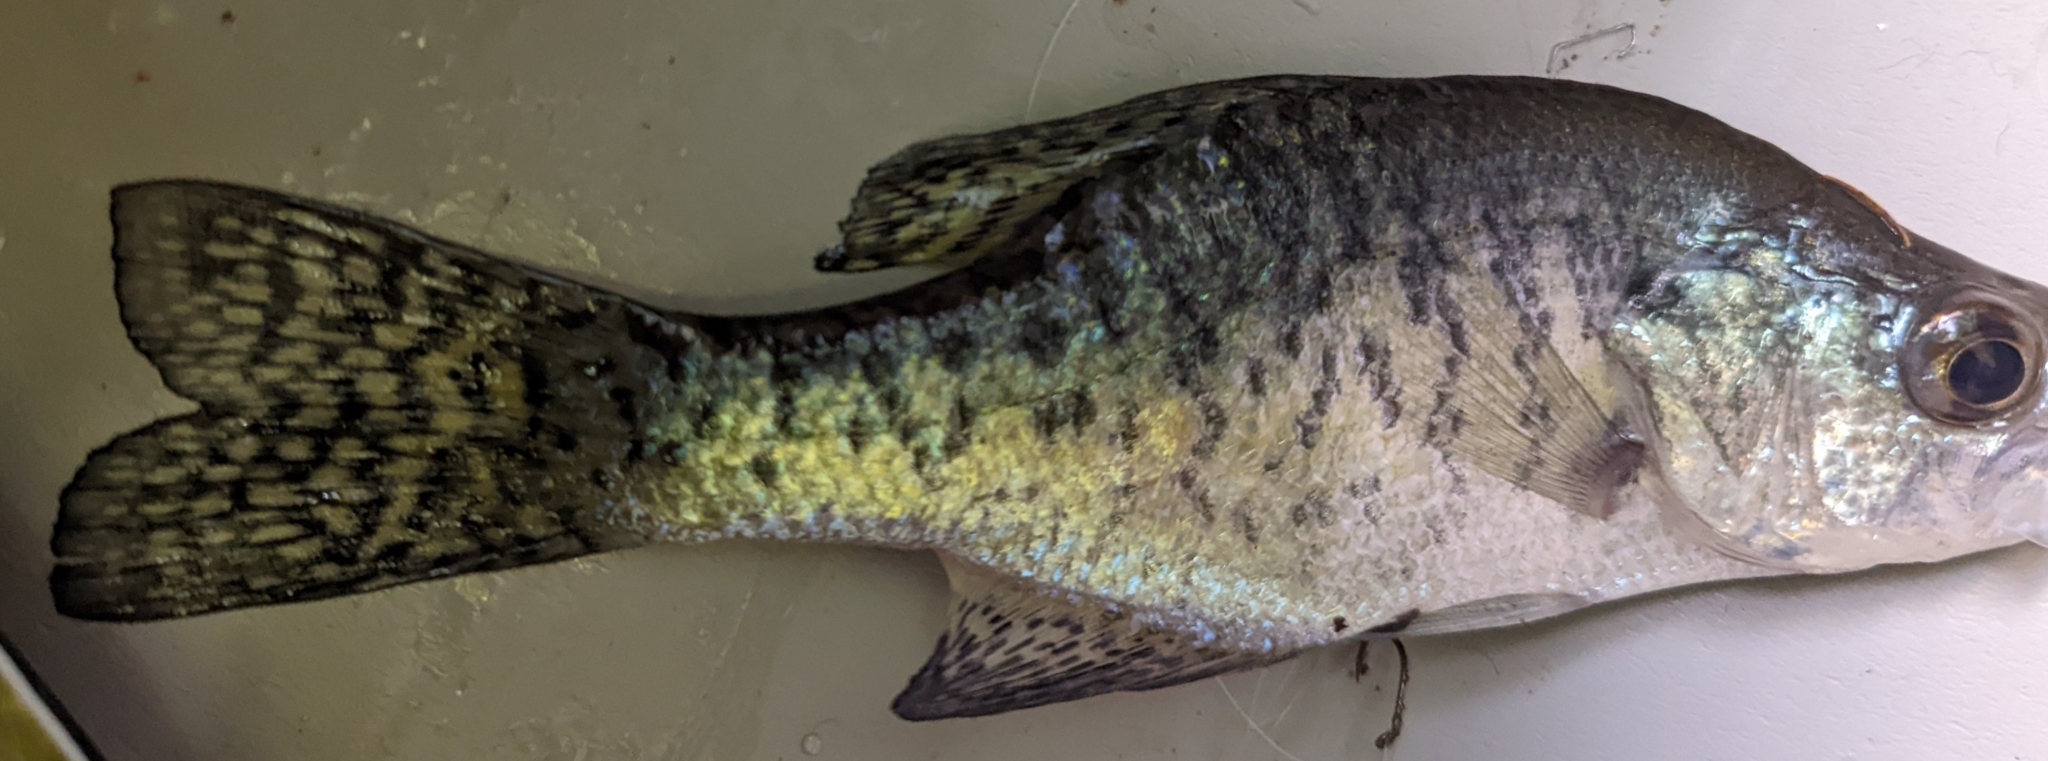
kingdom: Animalia
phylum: Chordata
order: Perciformes
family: Centrarchidae
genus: Pomoxis
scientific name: Pomoxis annularis
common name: White crappie
